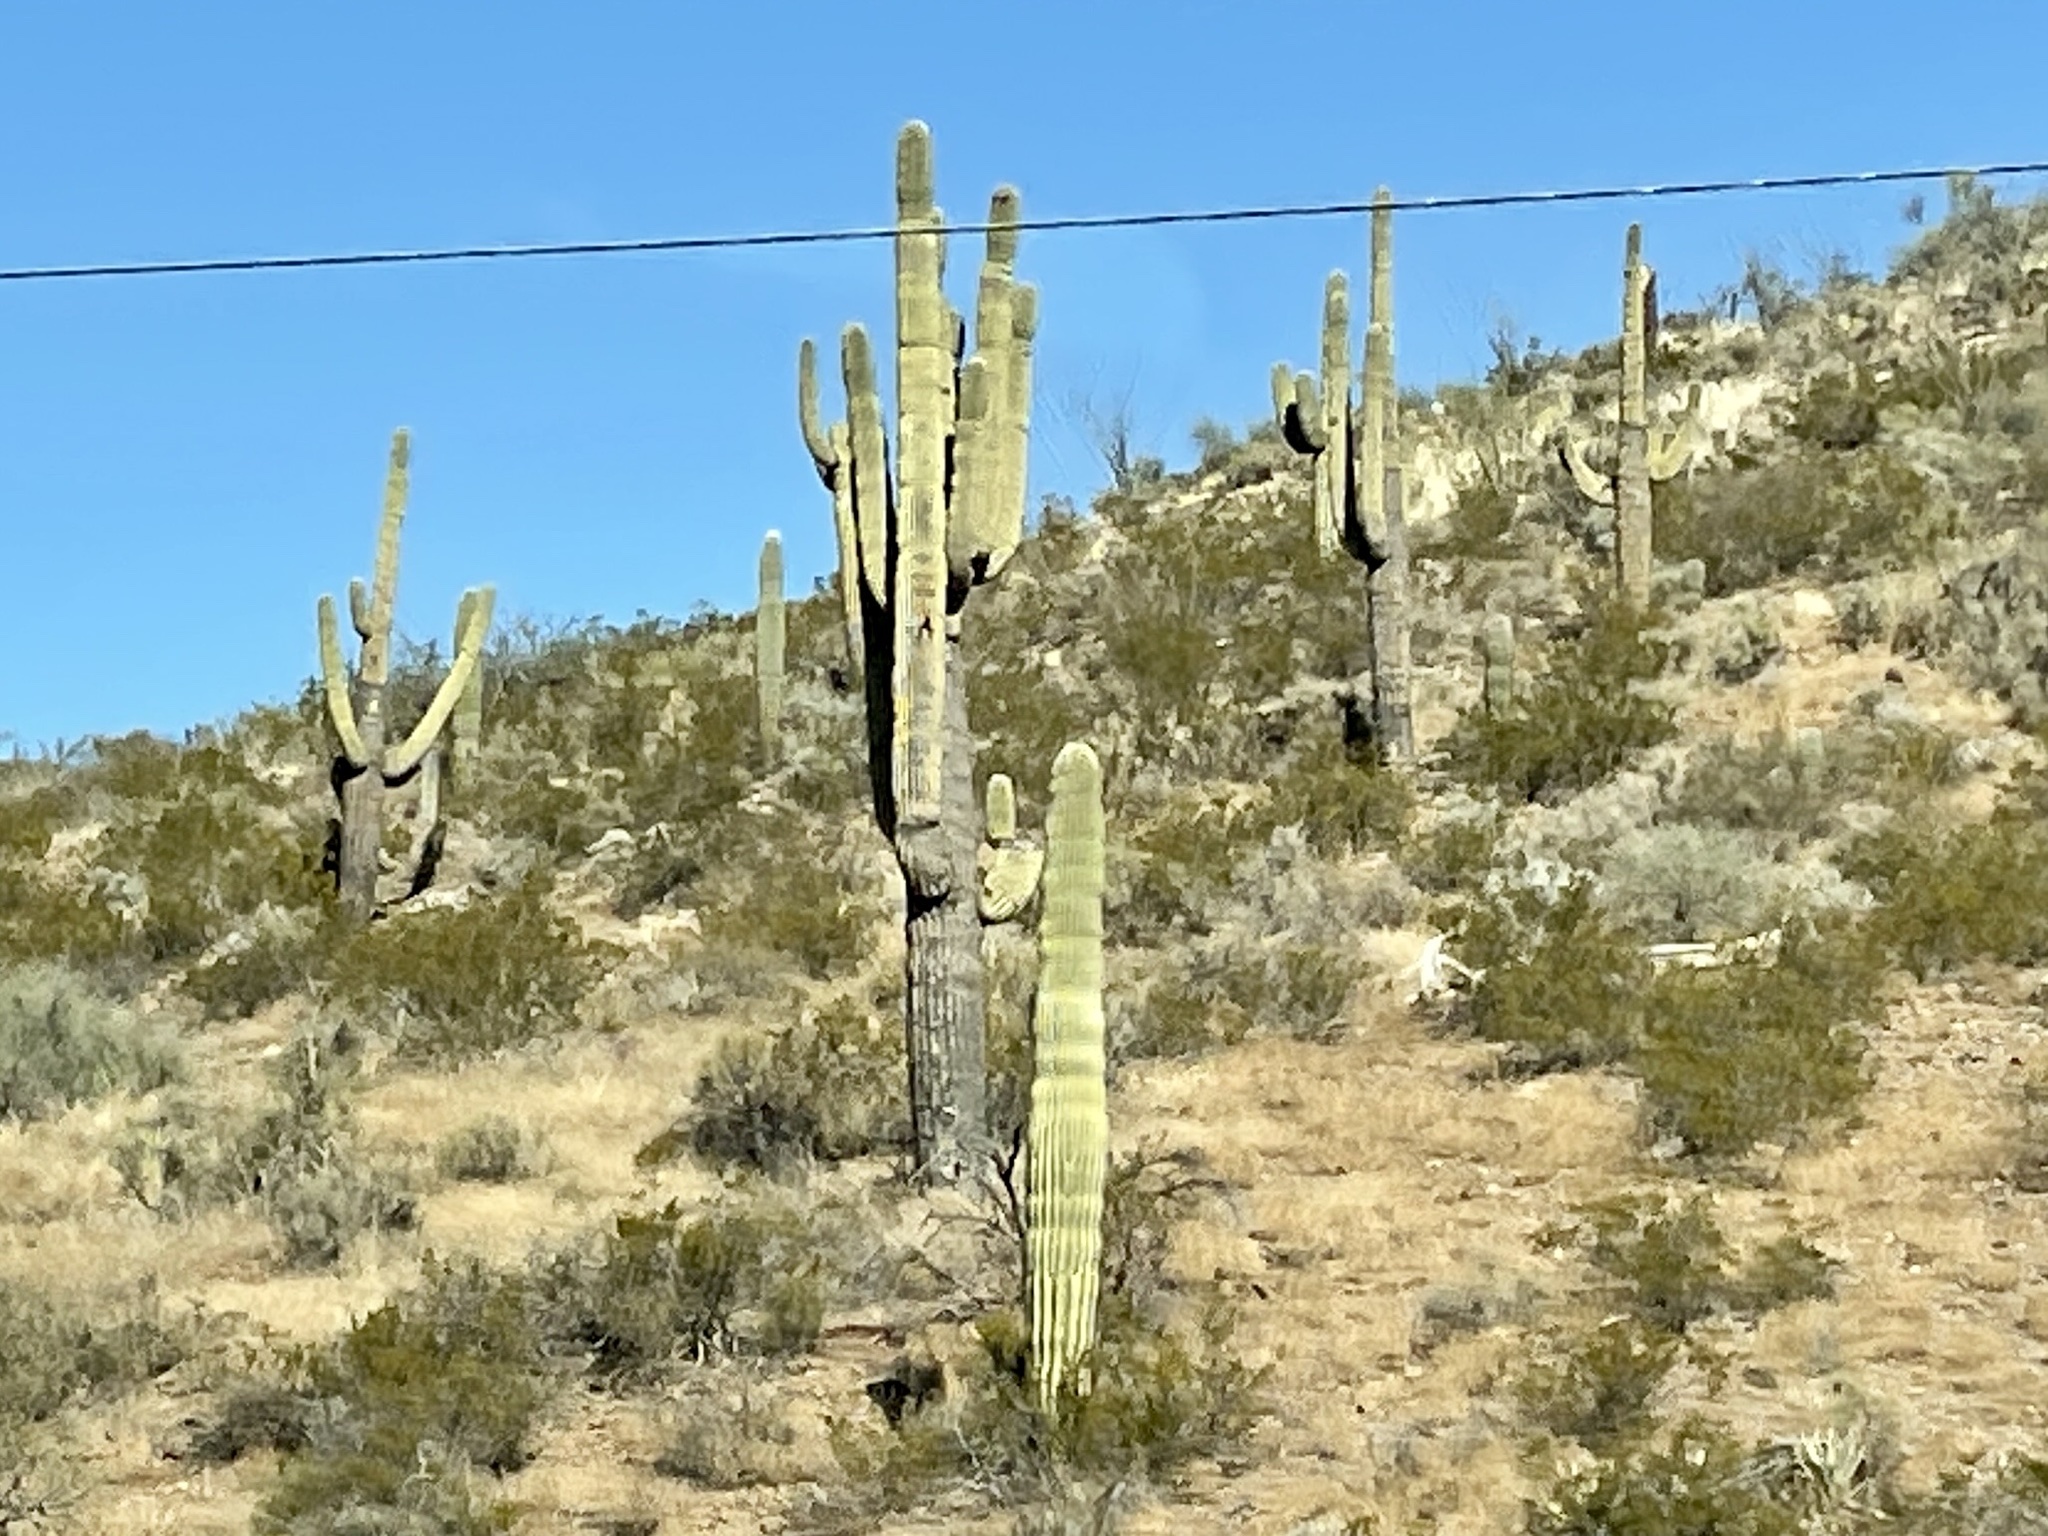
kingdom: Plantae
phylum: Tracheophyta
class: Magnoliopsida
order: Caryophyllales
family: Cactaceae
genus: Carnegiea
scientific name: Carnegiea gigantea
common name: Saguaro
